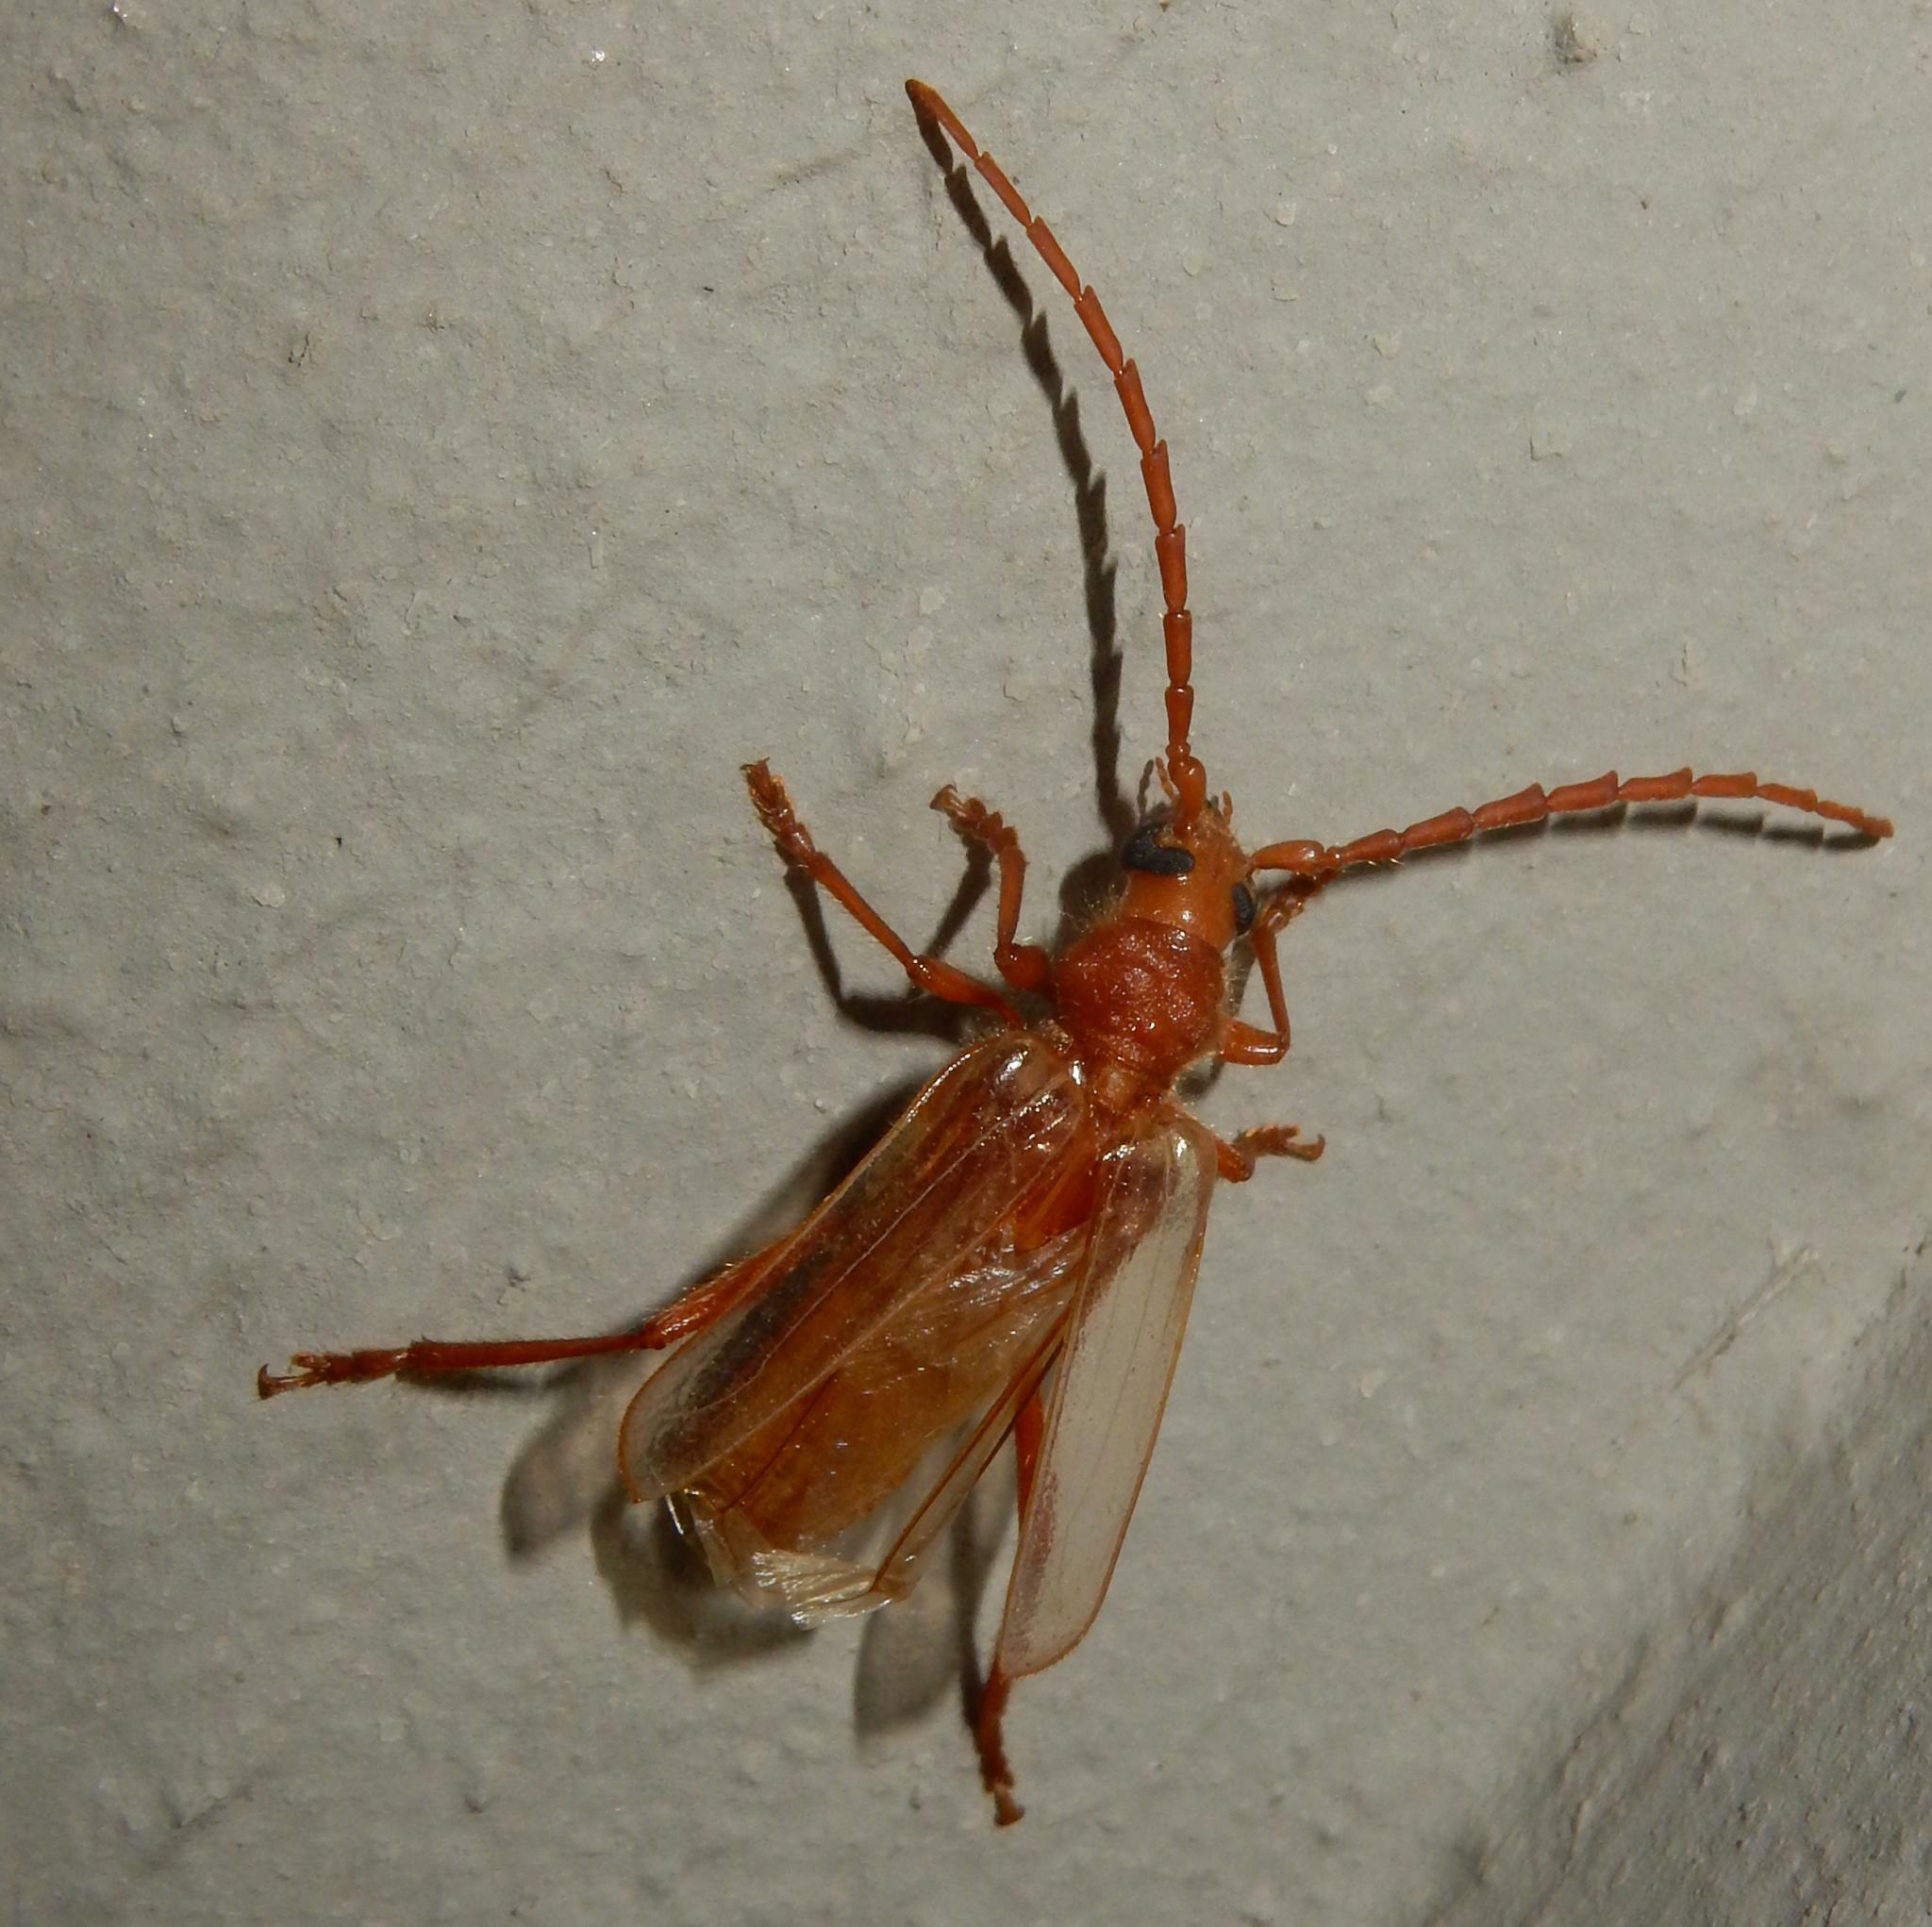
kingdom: Animalia
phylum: Arthropoda
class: Insecta
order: Coleoptera
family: Cerambycidae
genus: Gahania
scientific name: Gahania simmondsi
